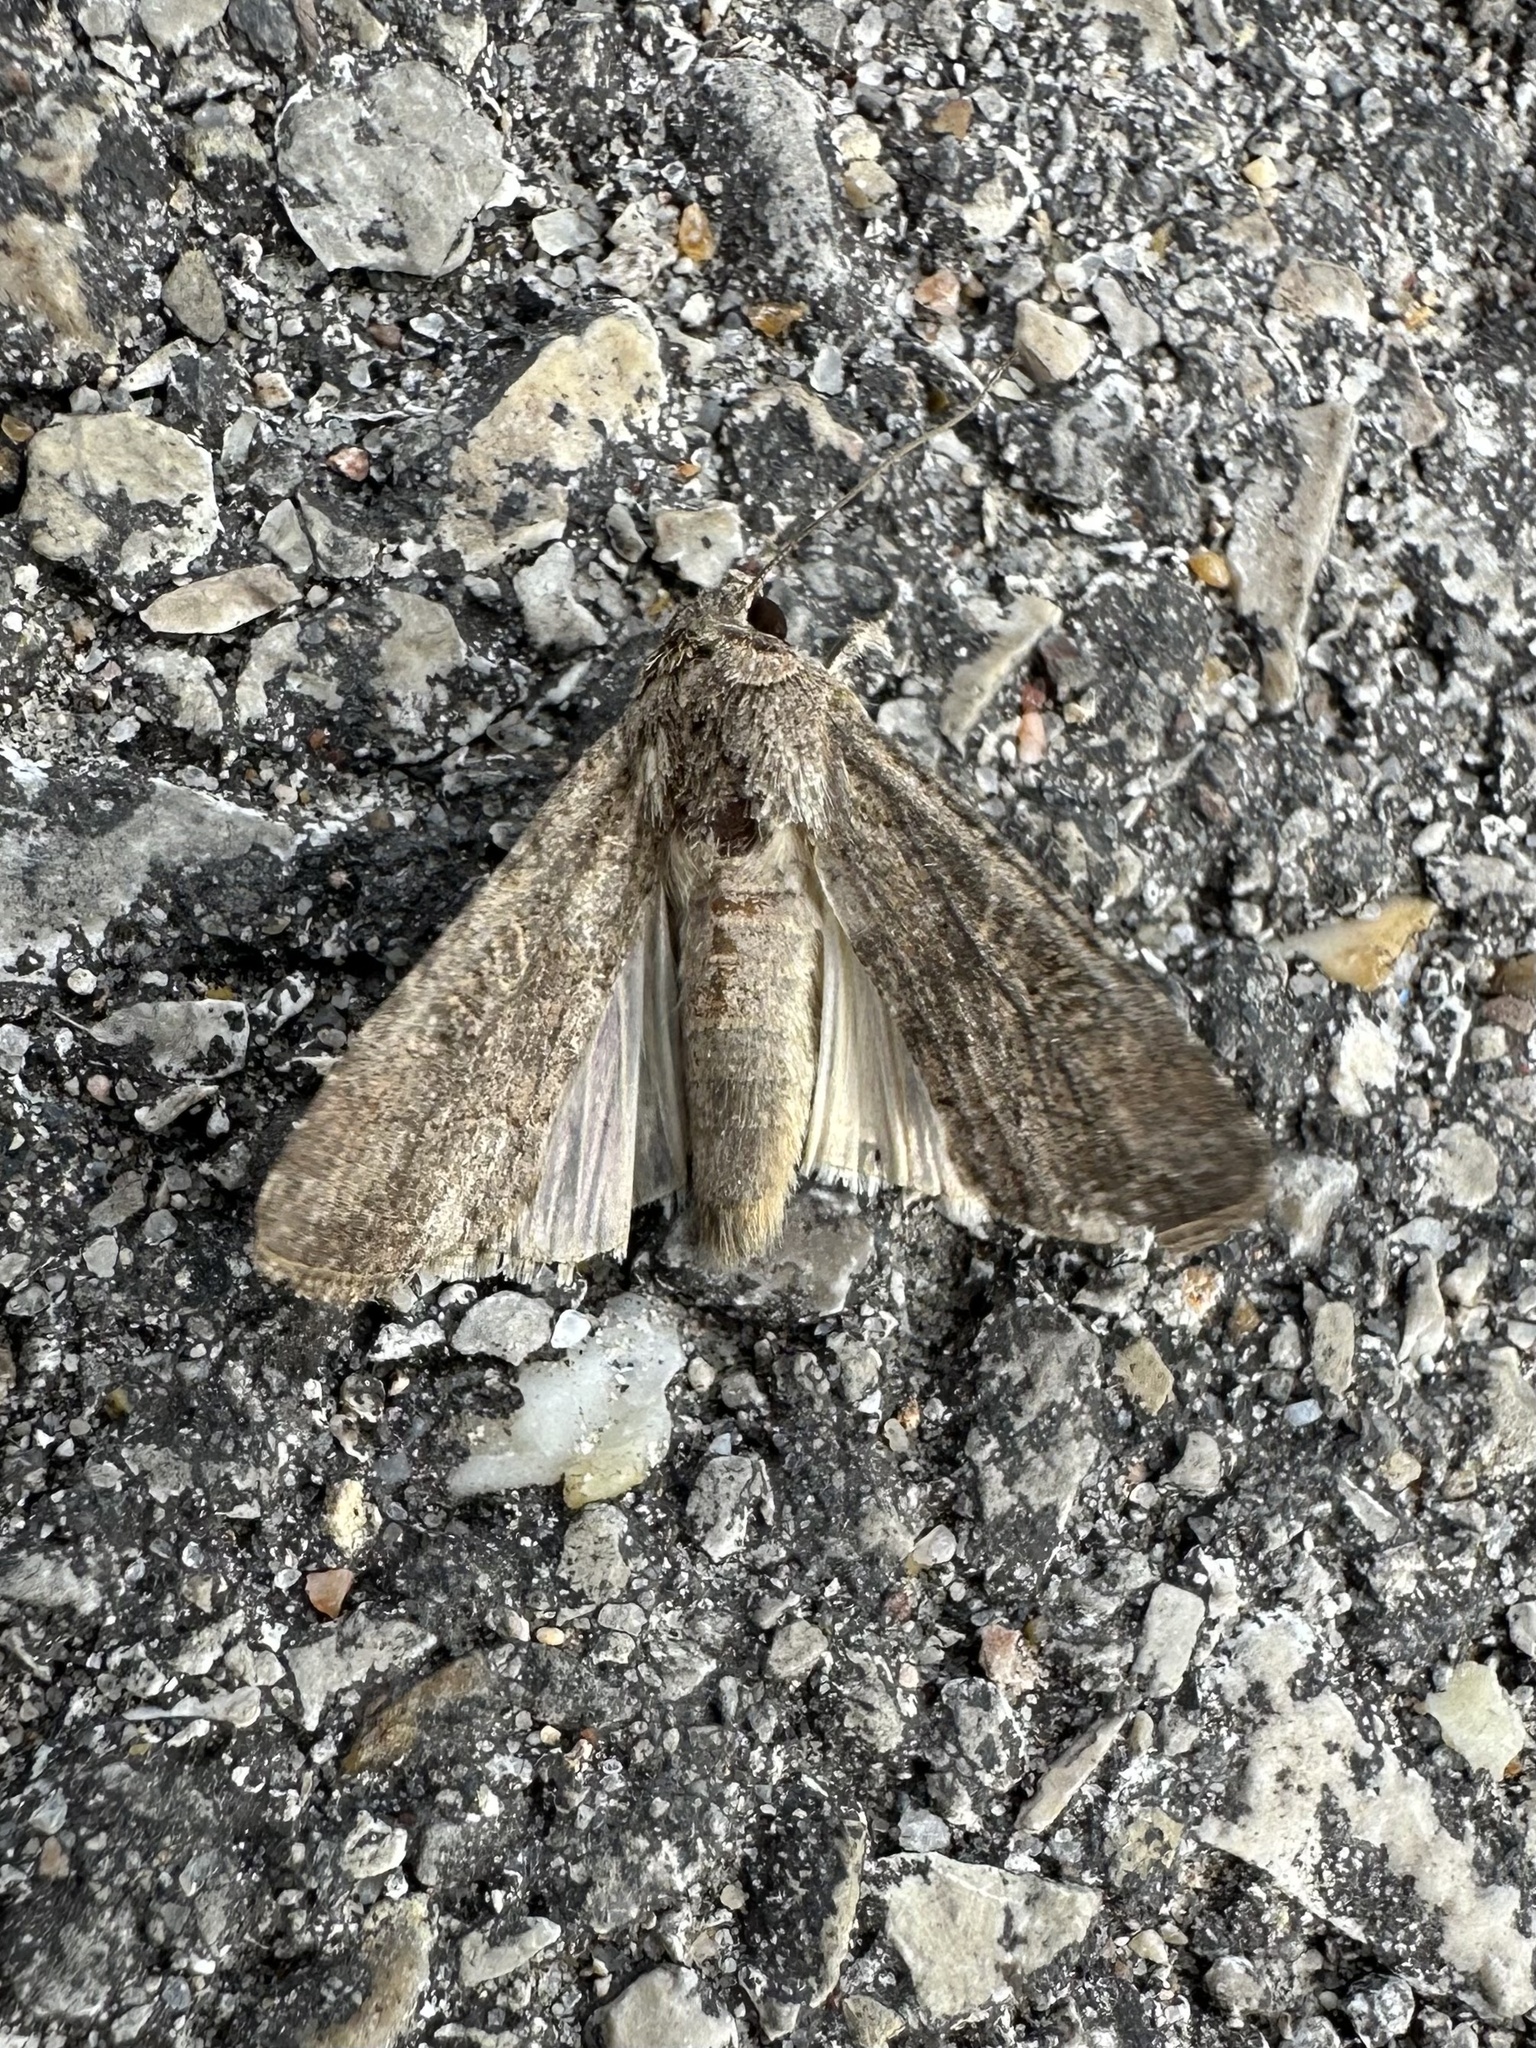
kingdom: Animalia
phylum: Arthropoda
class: Insecta
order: Lepidoptera
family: Noctuidae
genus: Spodoptera
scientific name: Spodoptera frugiperda
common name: Fall armyworm
